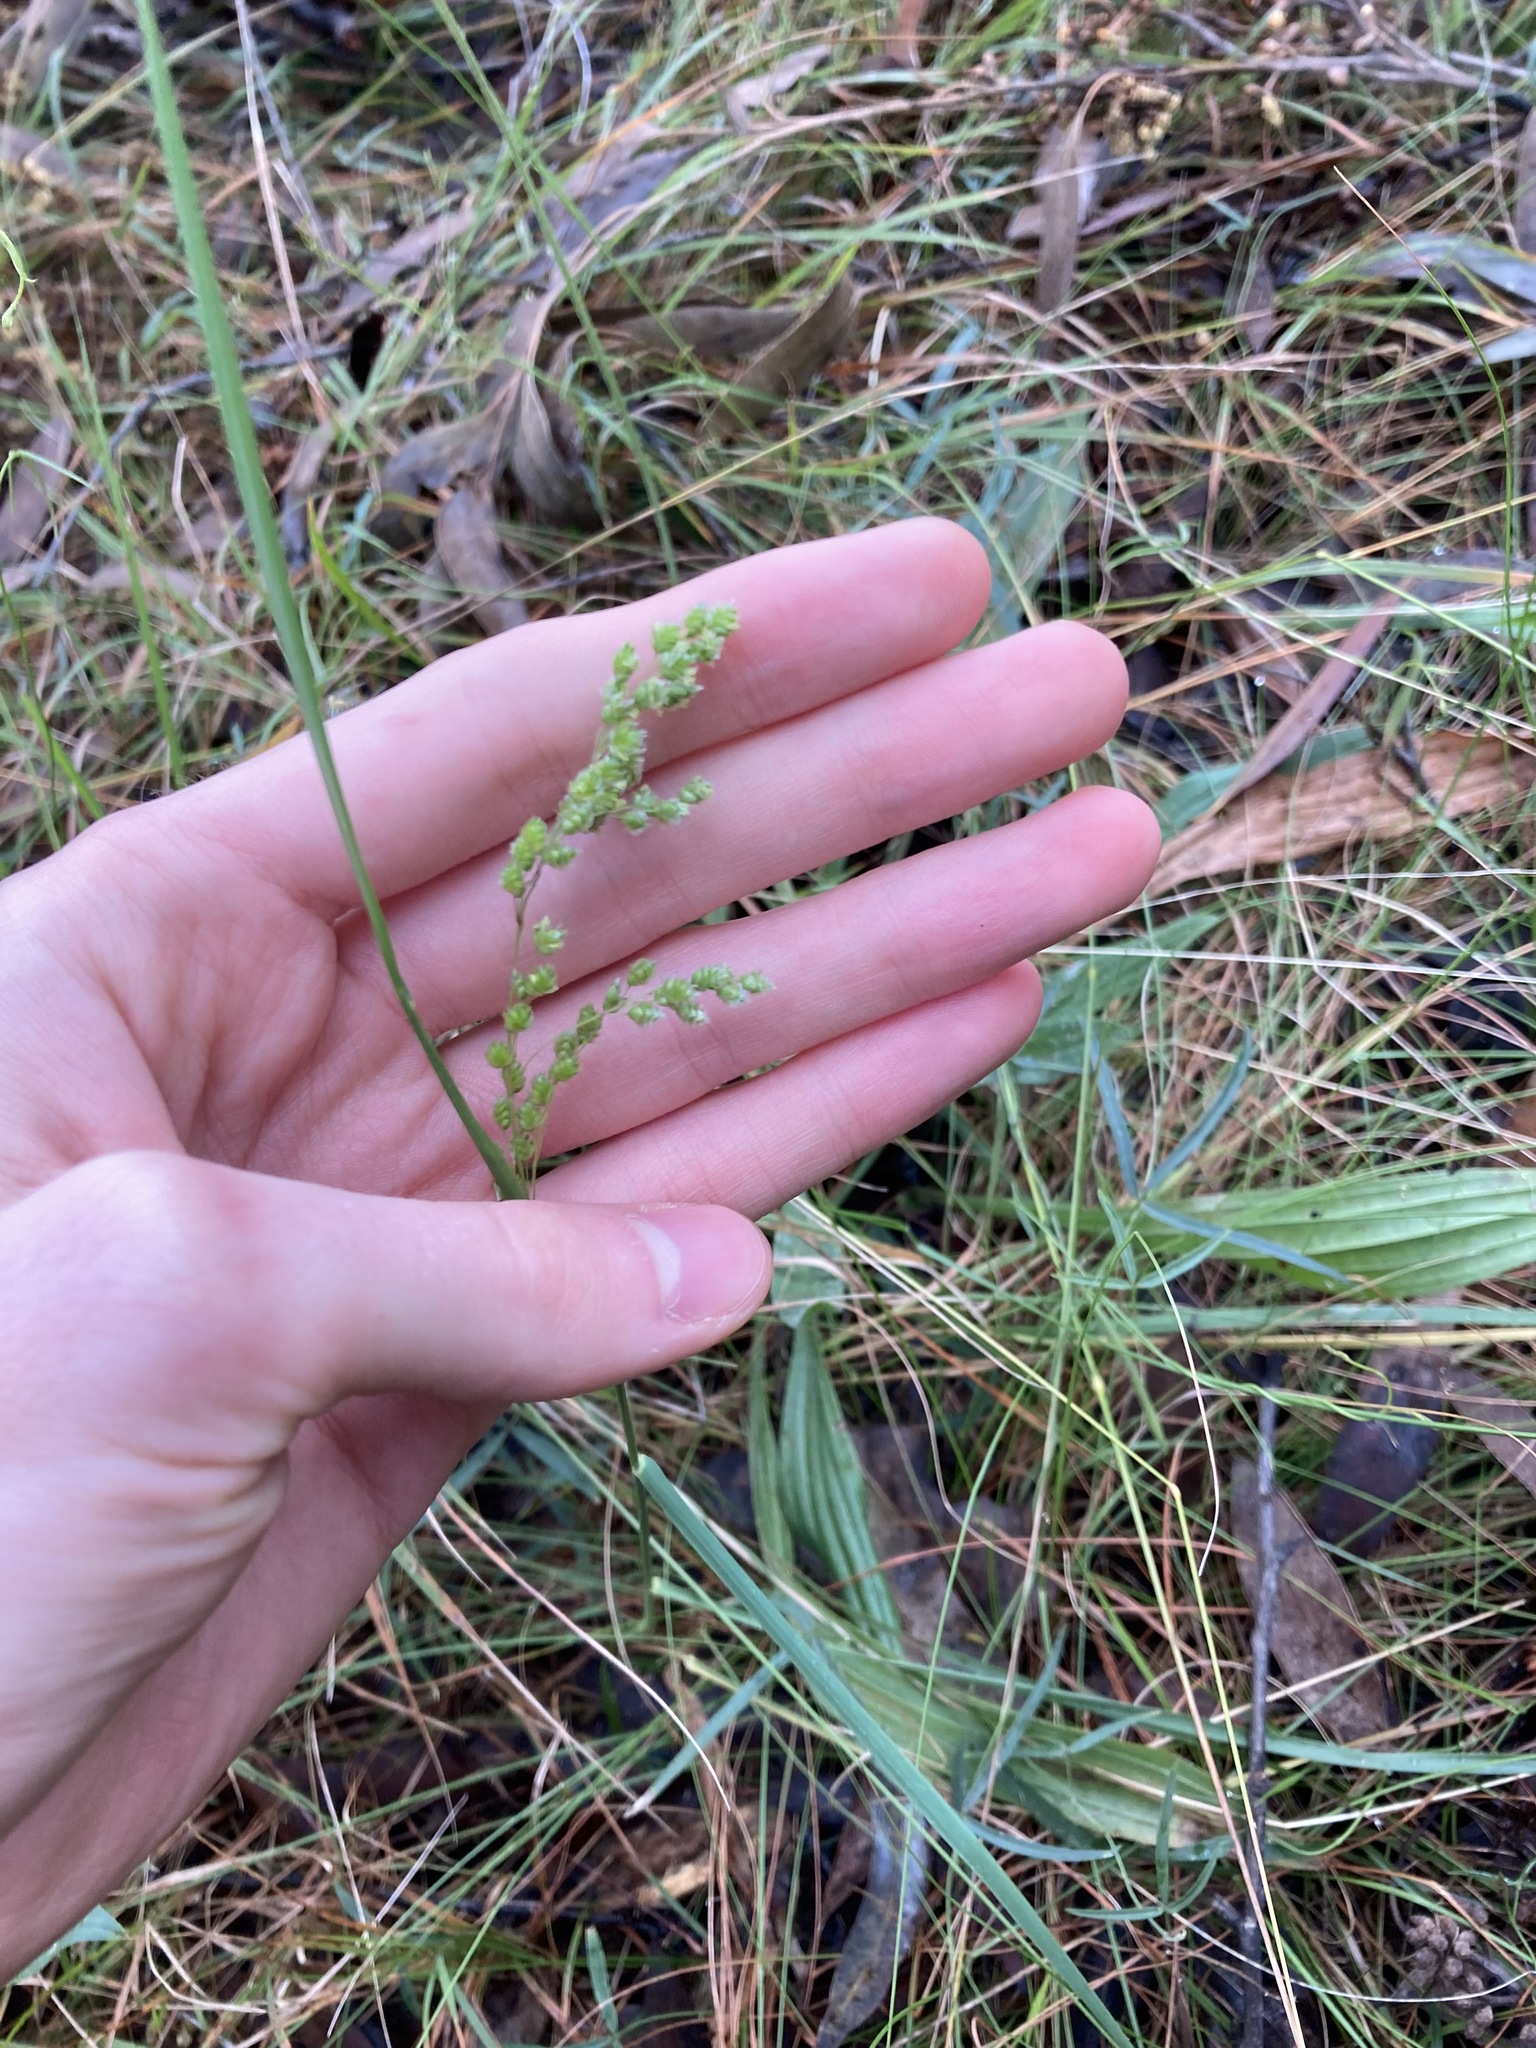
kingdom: Plantae
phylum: Tracheophyta
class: Liliopsida
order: Poales
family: Poaceae
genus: Chascolytrum
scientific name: Chascolytrum subaristatum
